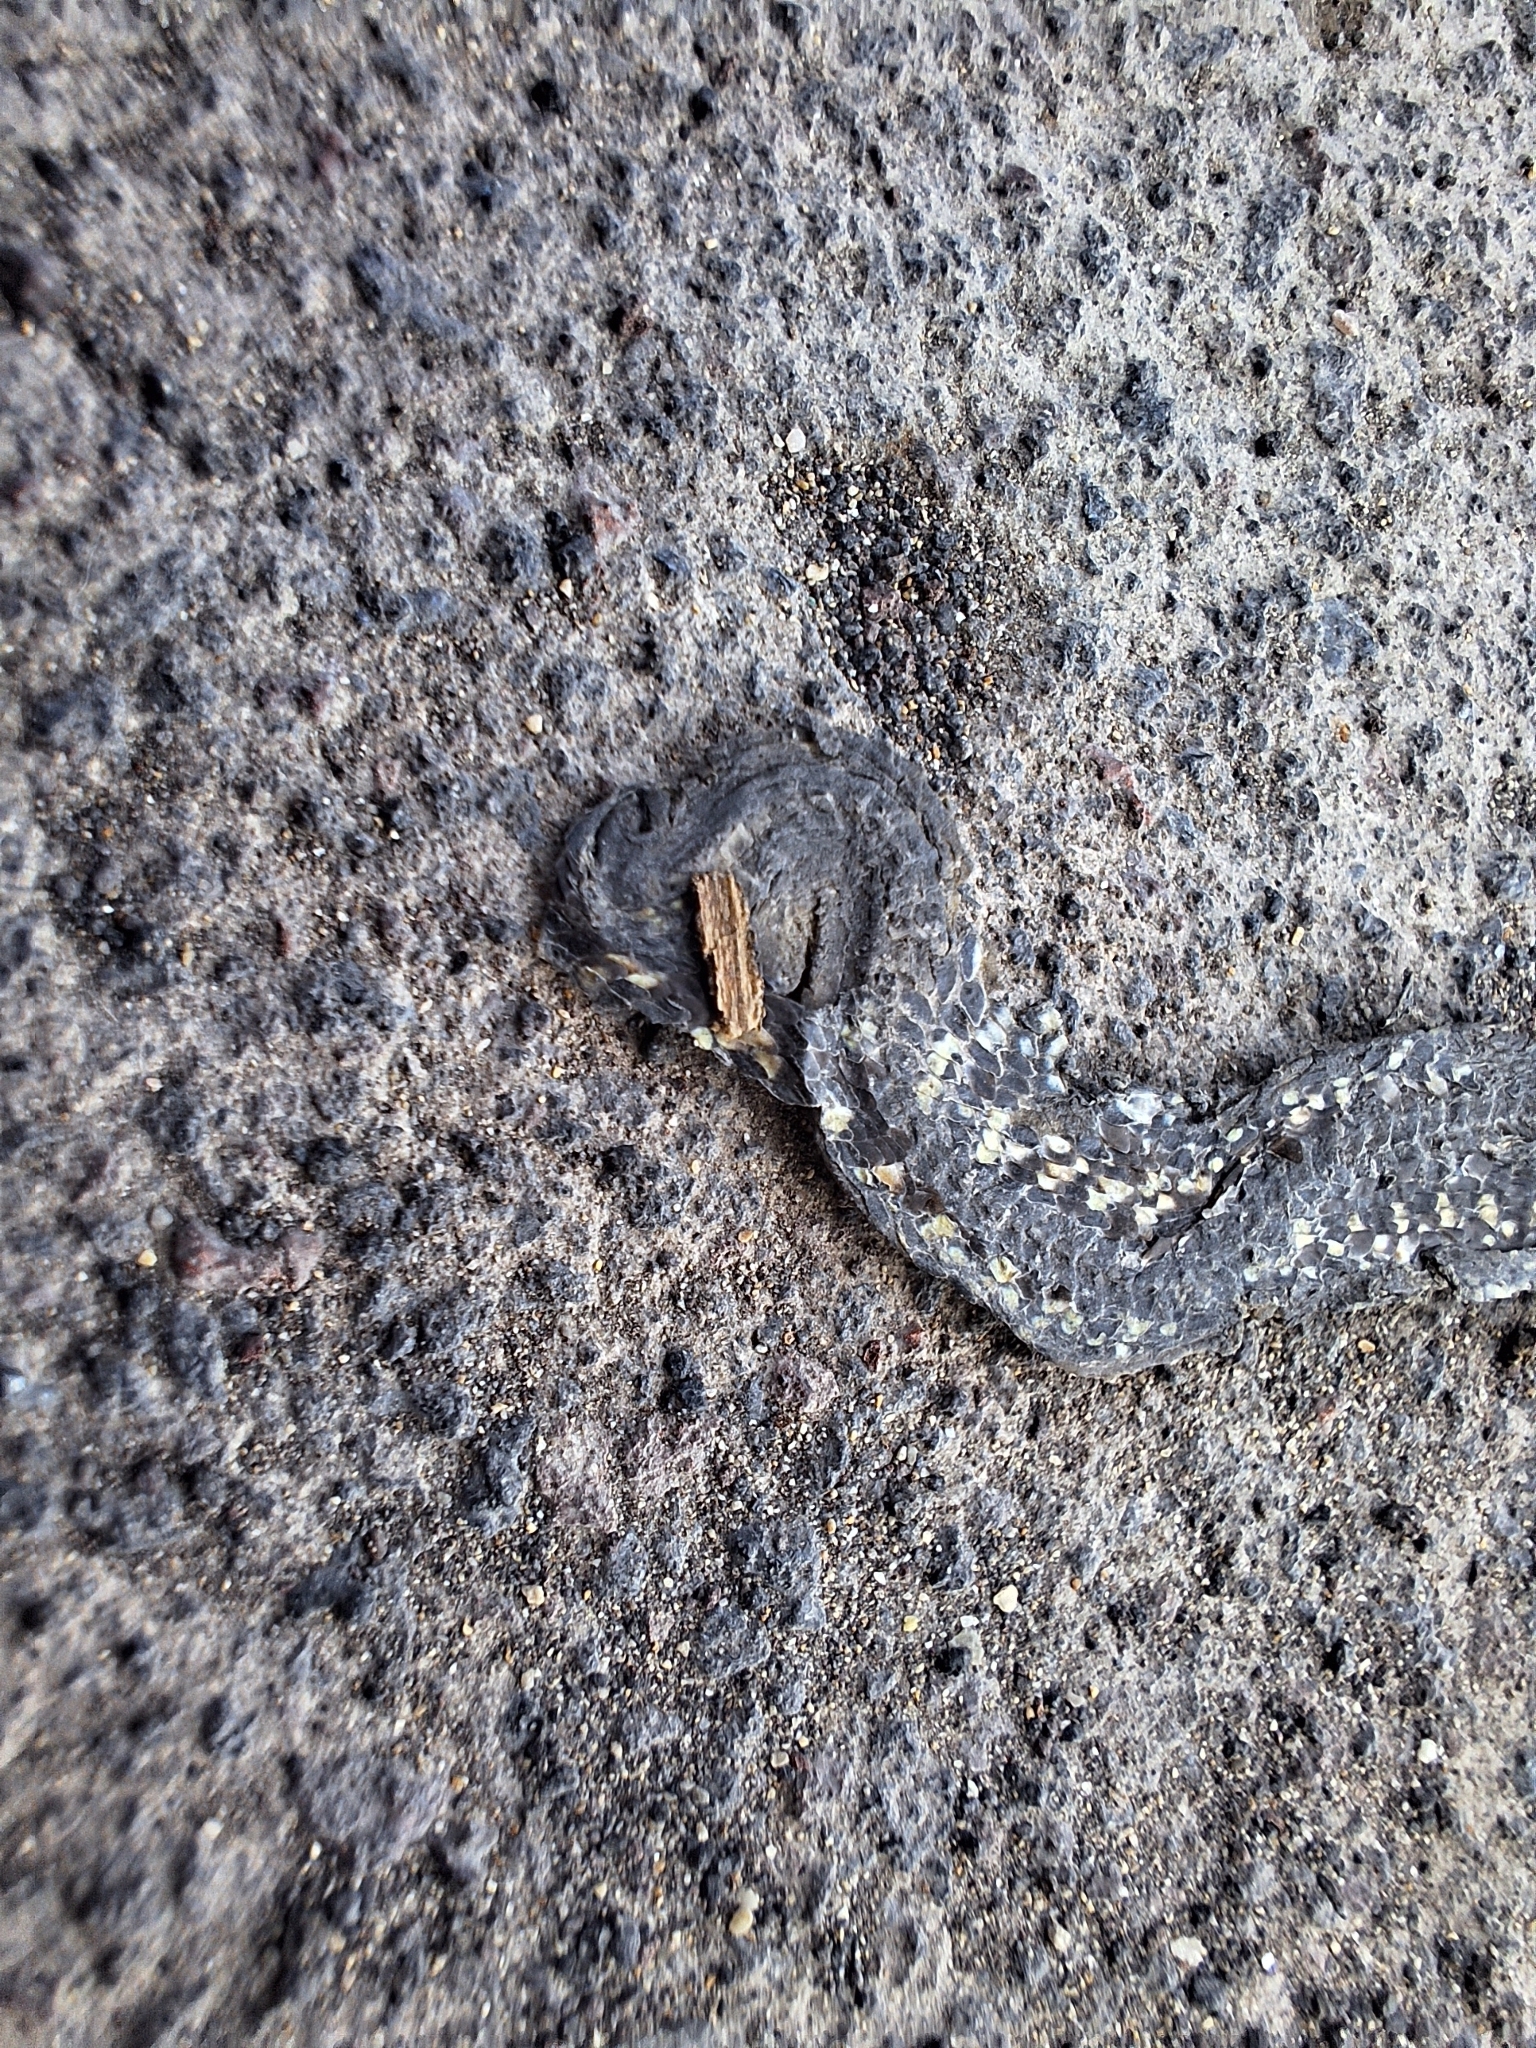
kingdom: Animalia
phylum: Chordata
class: Squamata
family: Colubridae
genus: Pseudalsophis
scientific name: Pseudalsophis darwini
